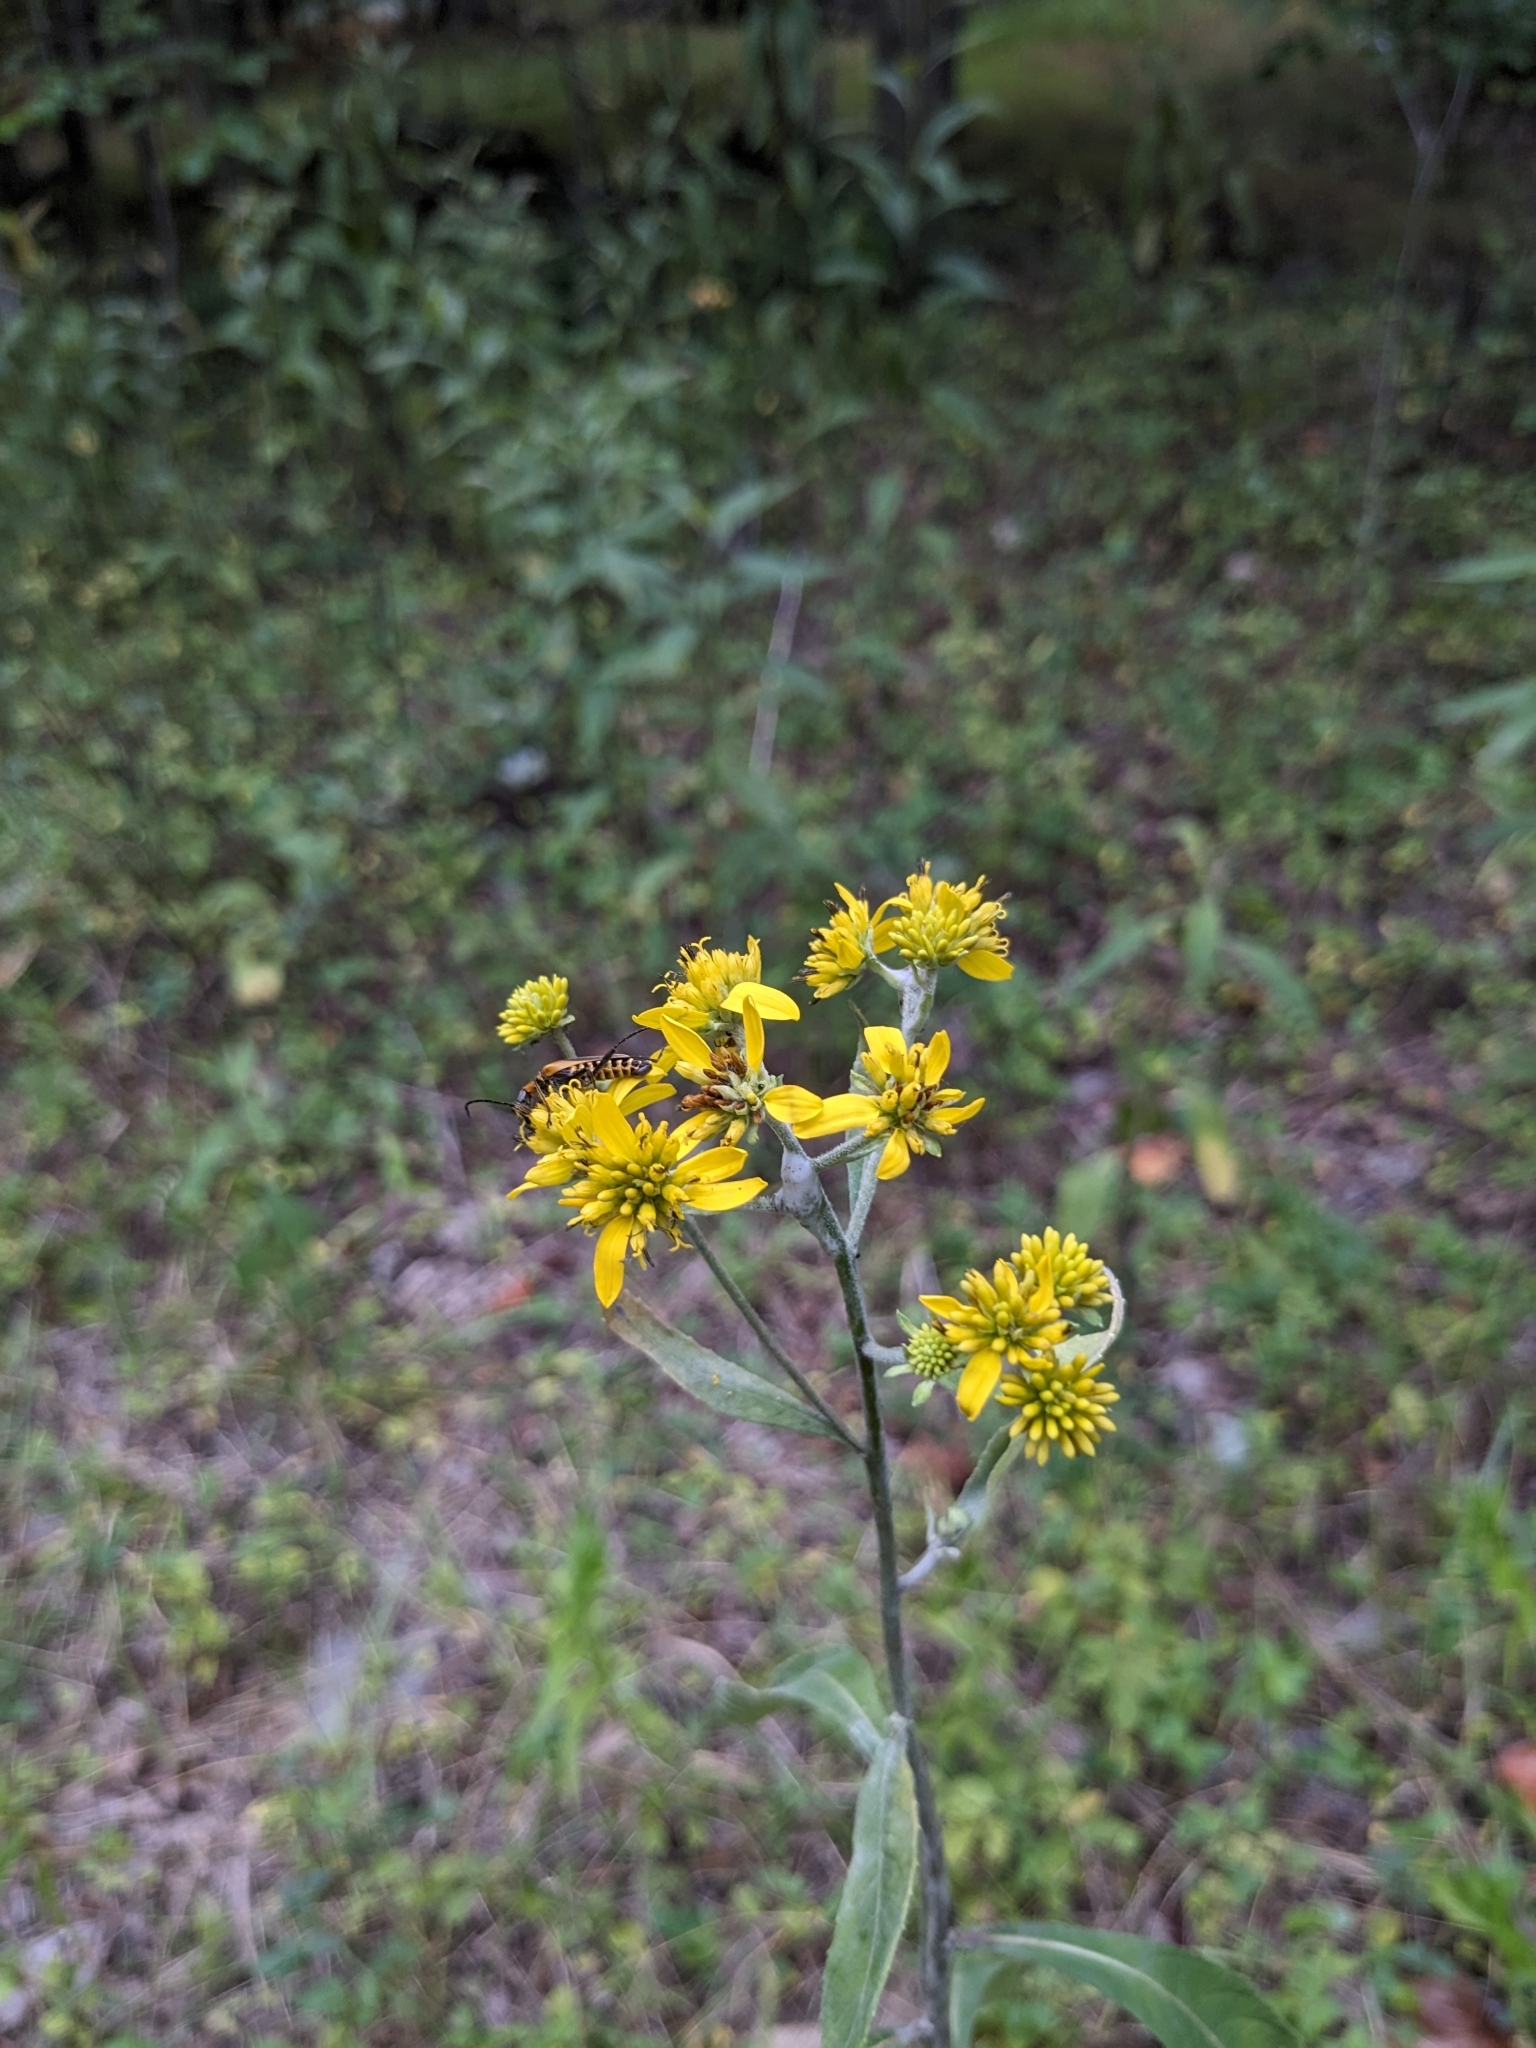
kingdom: Plantae
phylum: Tracheophyta
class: Magnoliopsida
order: Asterales
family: Asteraceae
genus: Verbesina
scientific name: Verbesina alternifolia
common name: Wingstem
